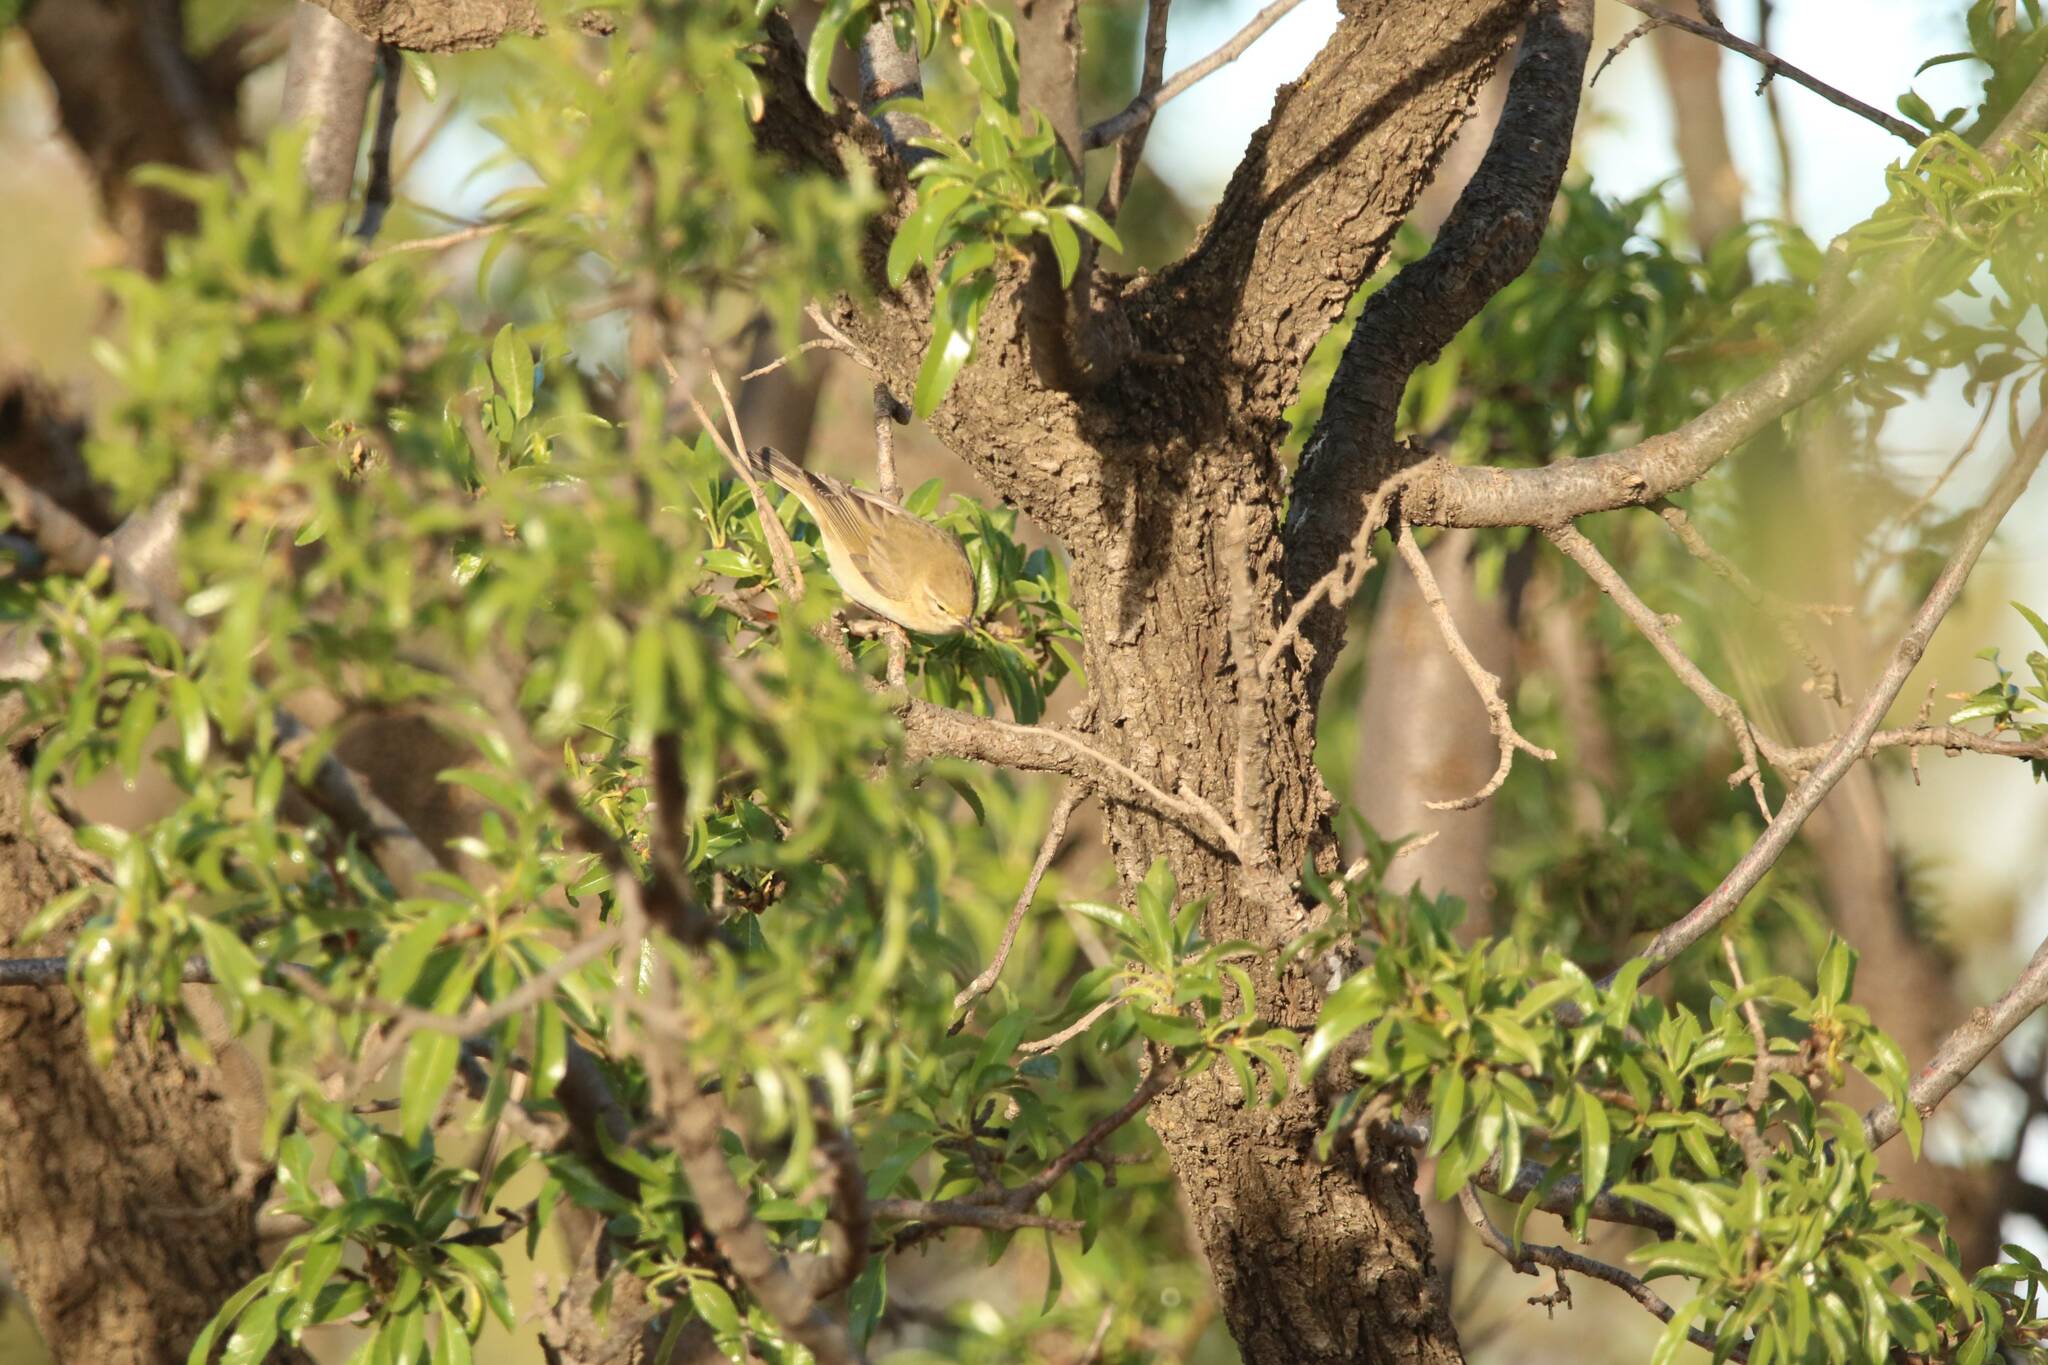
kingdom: Animalia
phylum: Chordata
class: Aves
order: Passeriformes
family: Phylloscopidae
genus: Phylloscopus
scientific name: Phylloscopus trochilus
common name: Willow warbler
